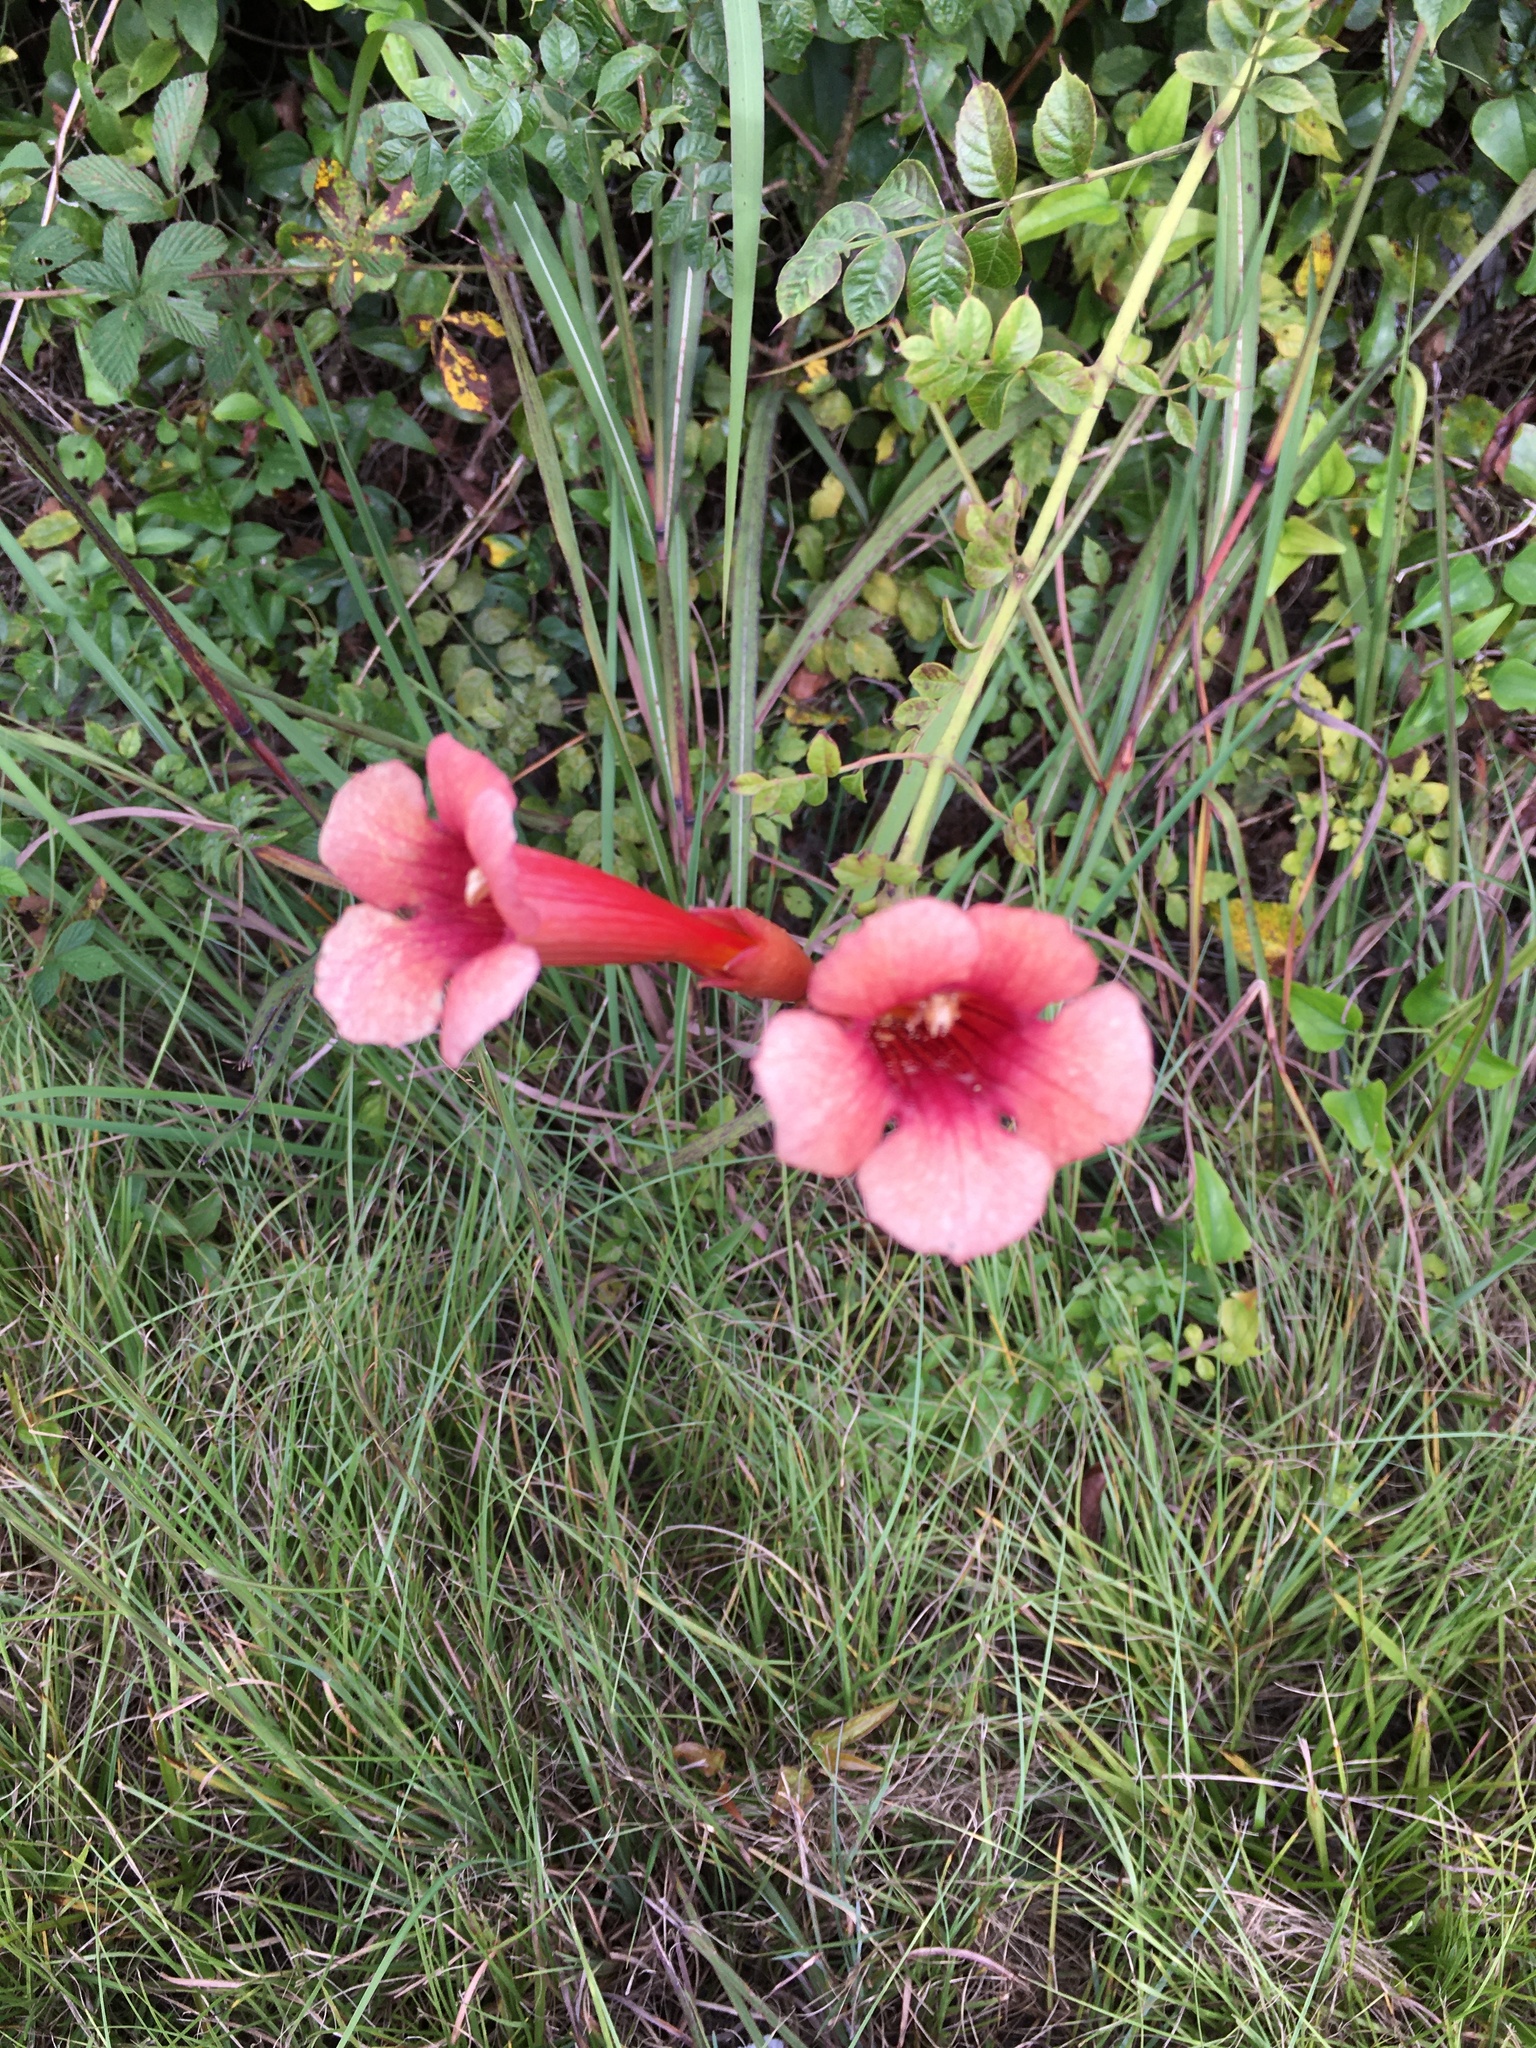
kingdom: Plantae
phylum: Tracheophyta
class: Magnoliopsida
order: Lamiales
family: Bignoniaceae
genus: Campsis
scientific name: Campsis radicans
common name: Trumpet-creeper
